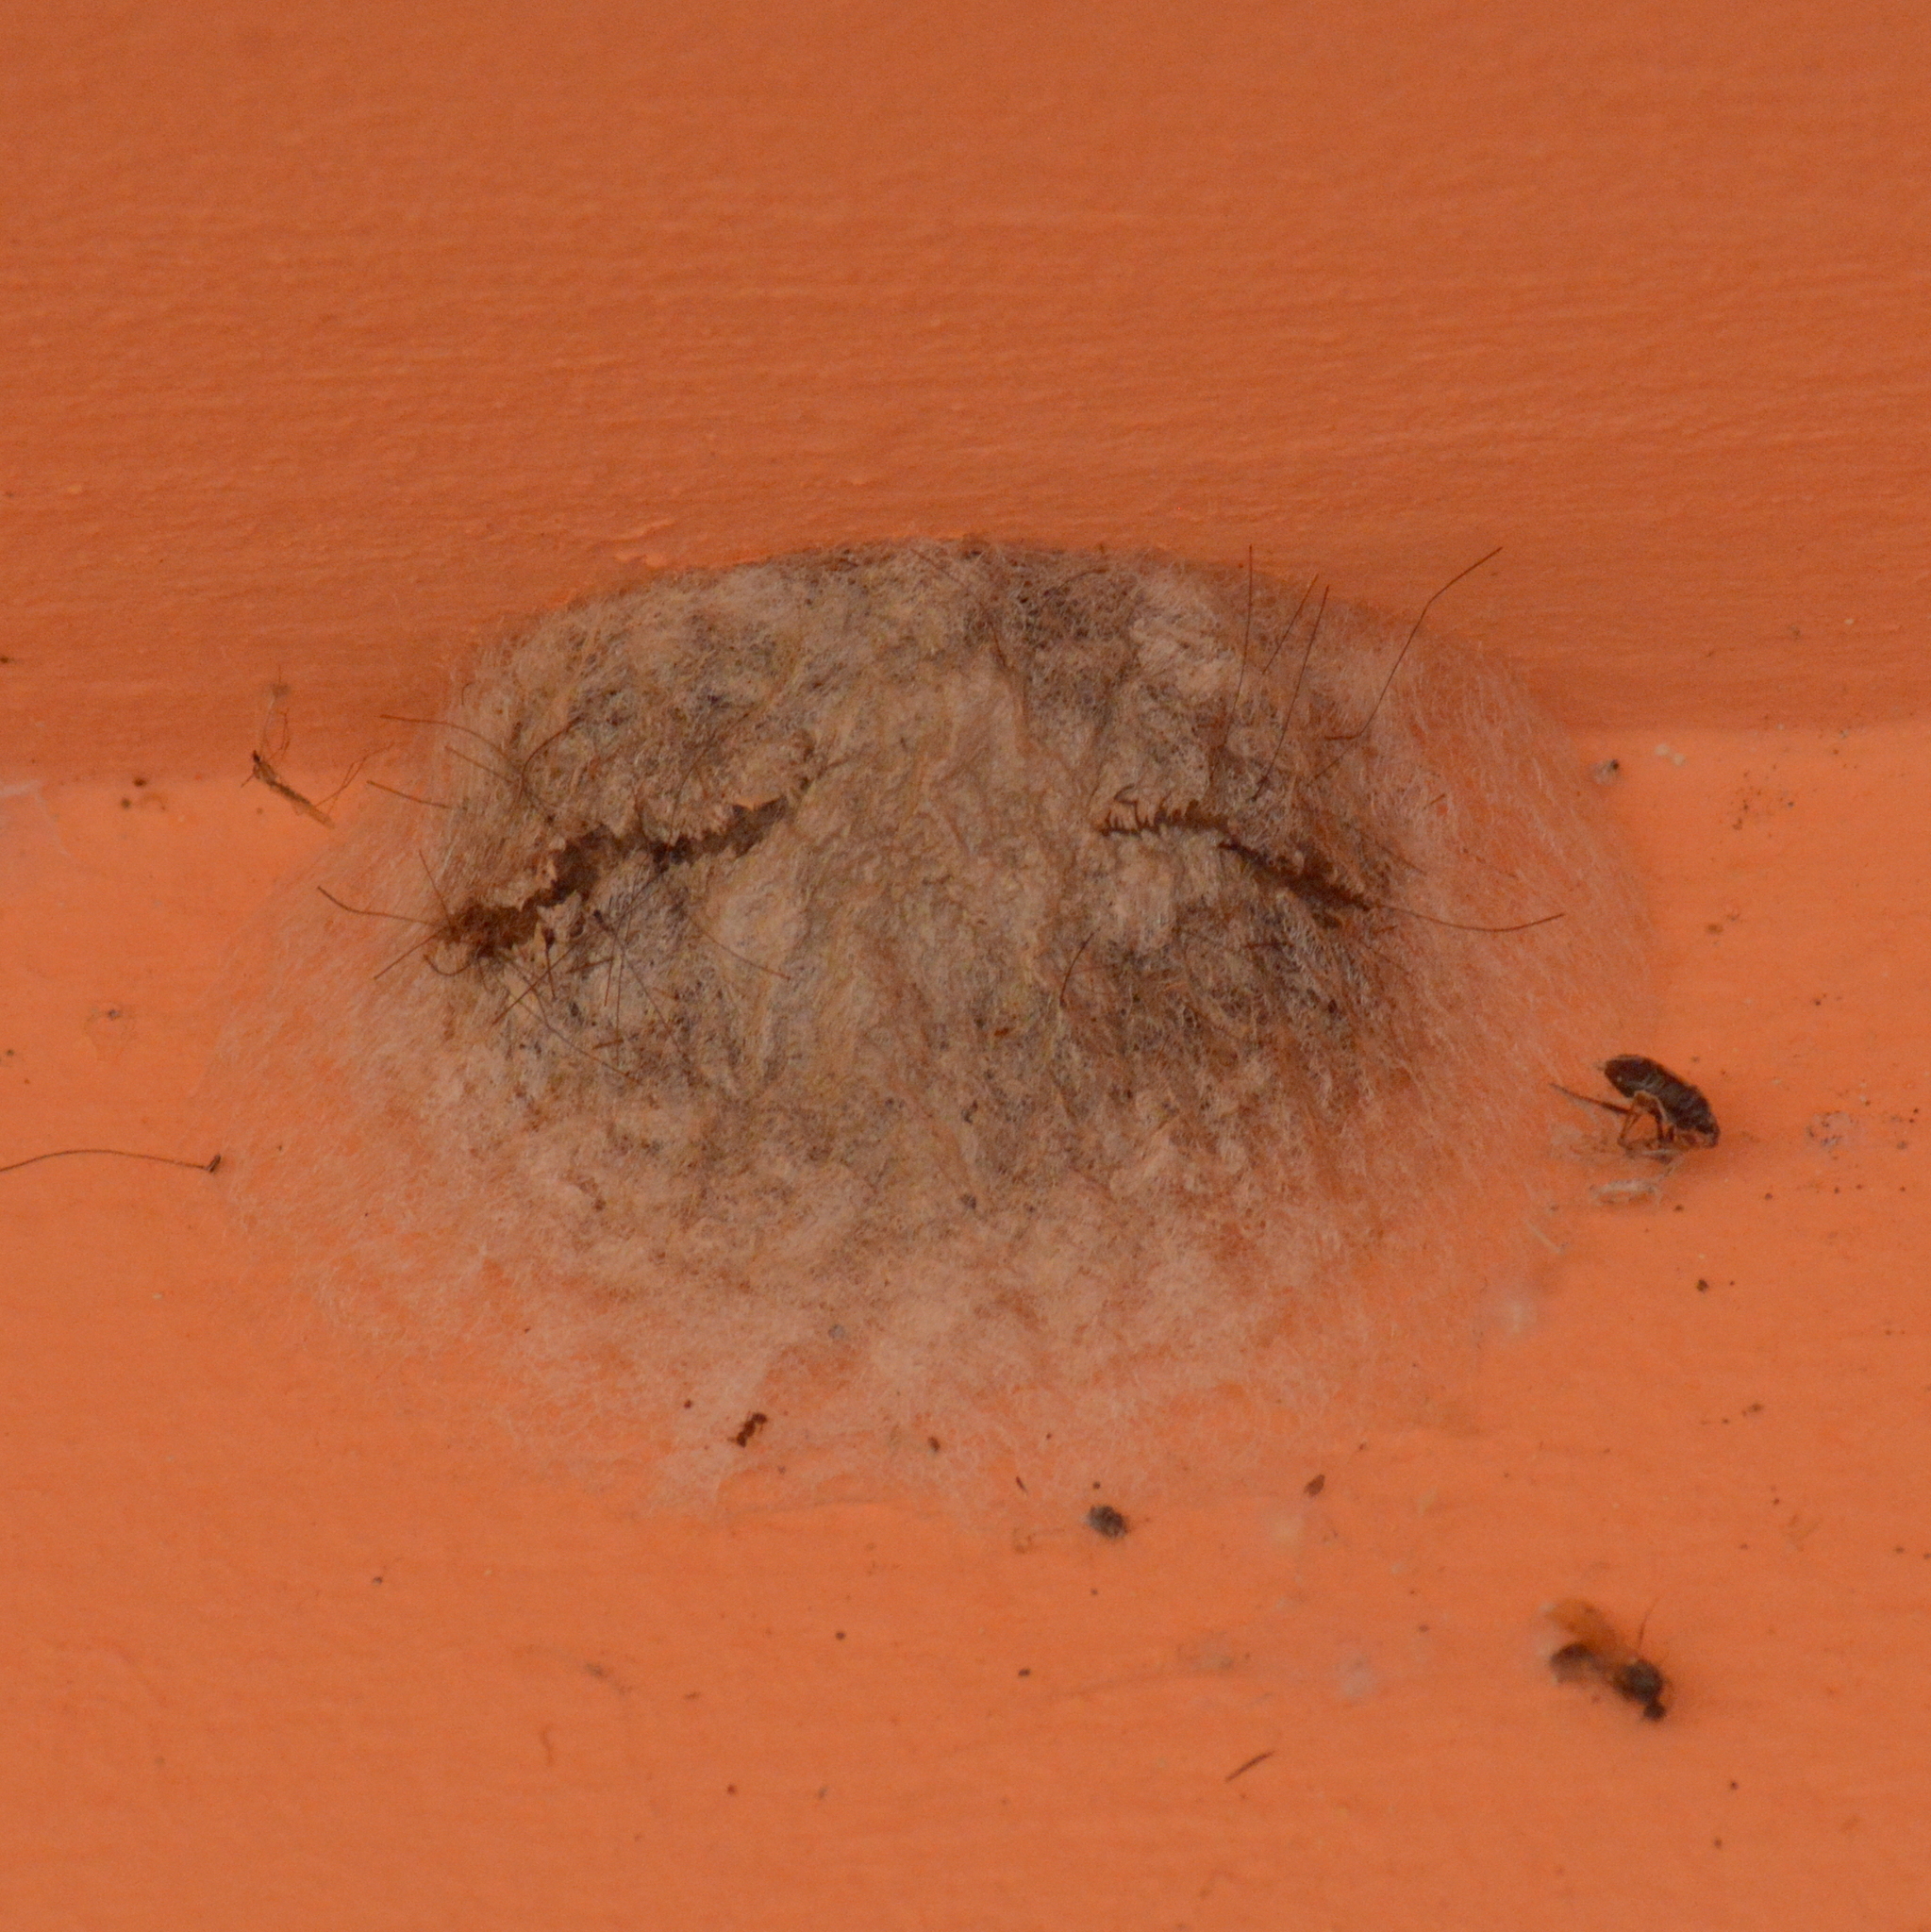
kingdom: Animalia
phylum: Arthropoda
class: Insecta
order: Lepidoptera
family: Megalopygidae
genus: Megalopyge
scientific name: Megalopyge urens
